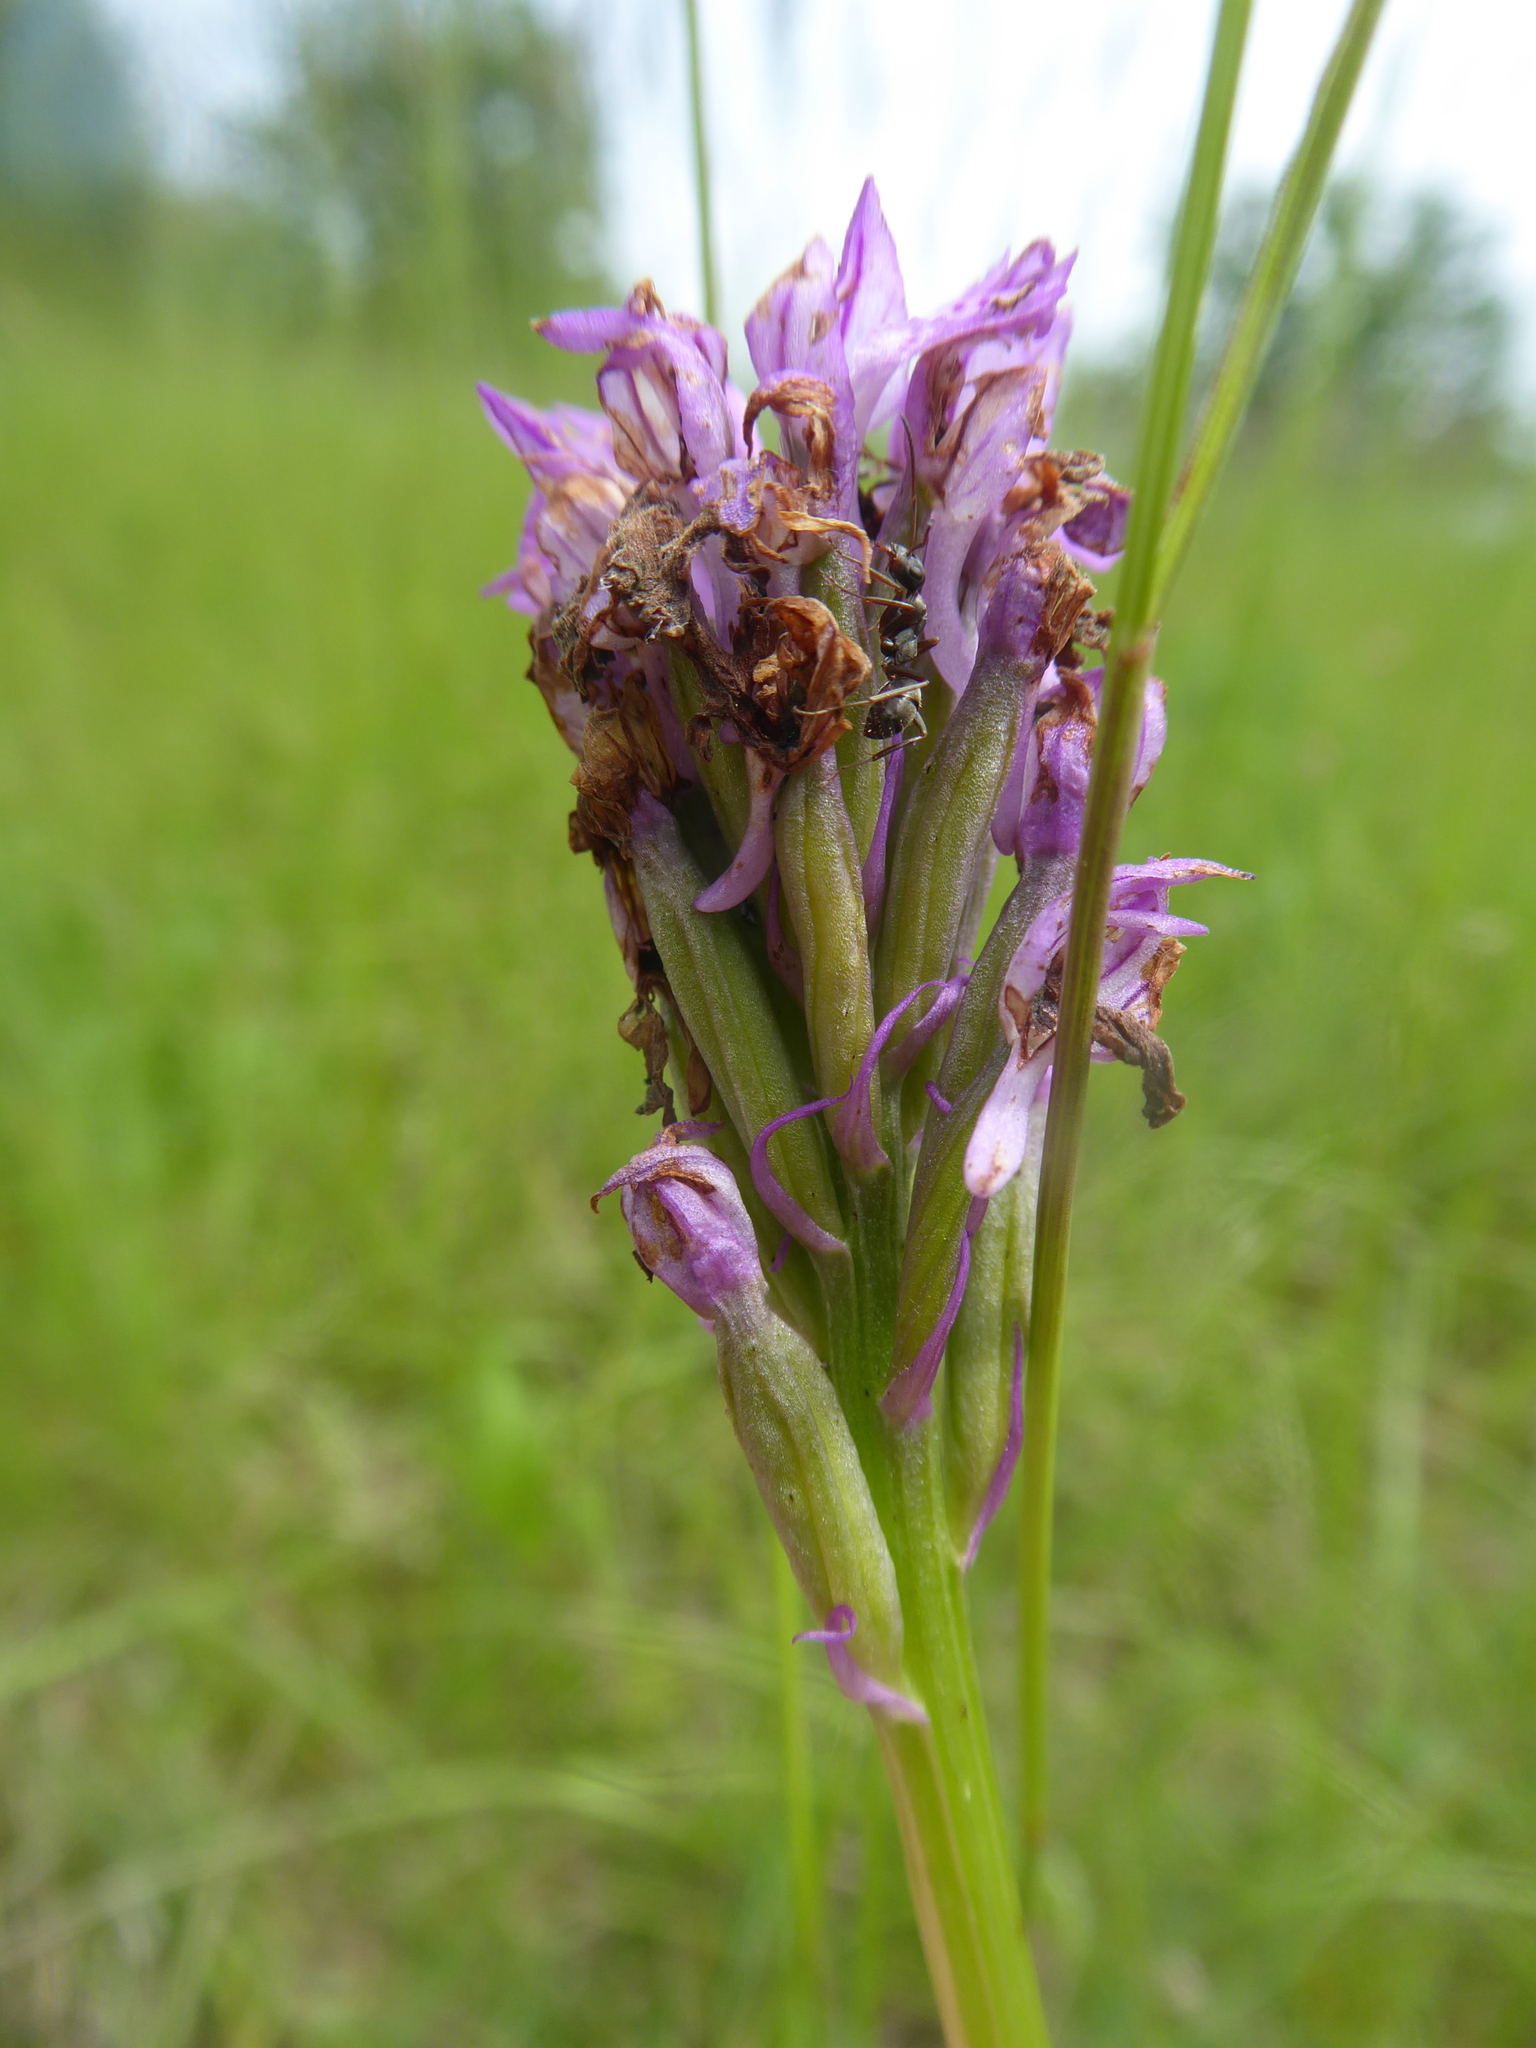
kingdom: Plantae
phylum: Tracheophyta
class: Liliopsida
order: Asparagales
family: Orchidaceae
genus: Neotinea
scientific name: Neotinea tridentata
